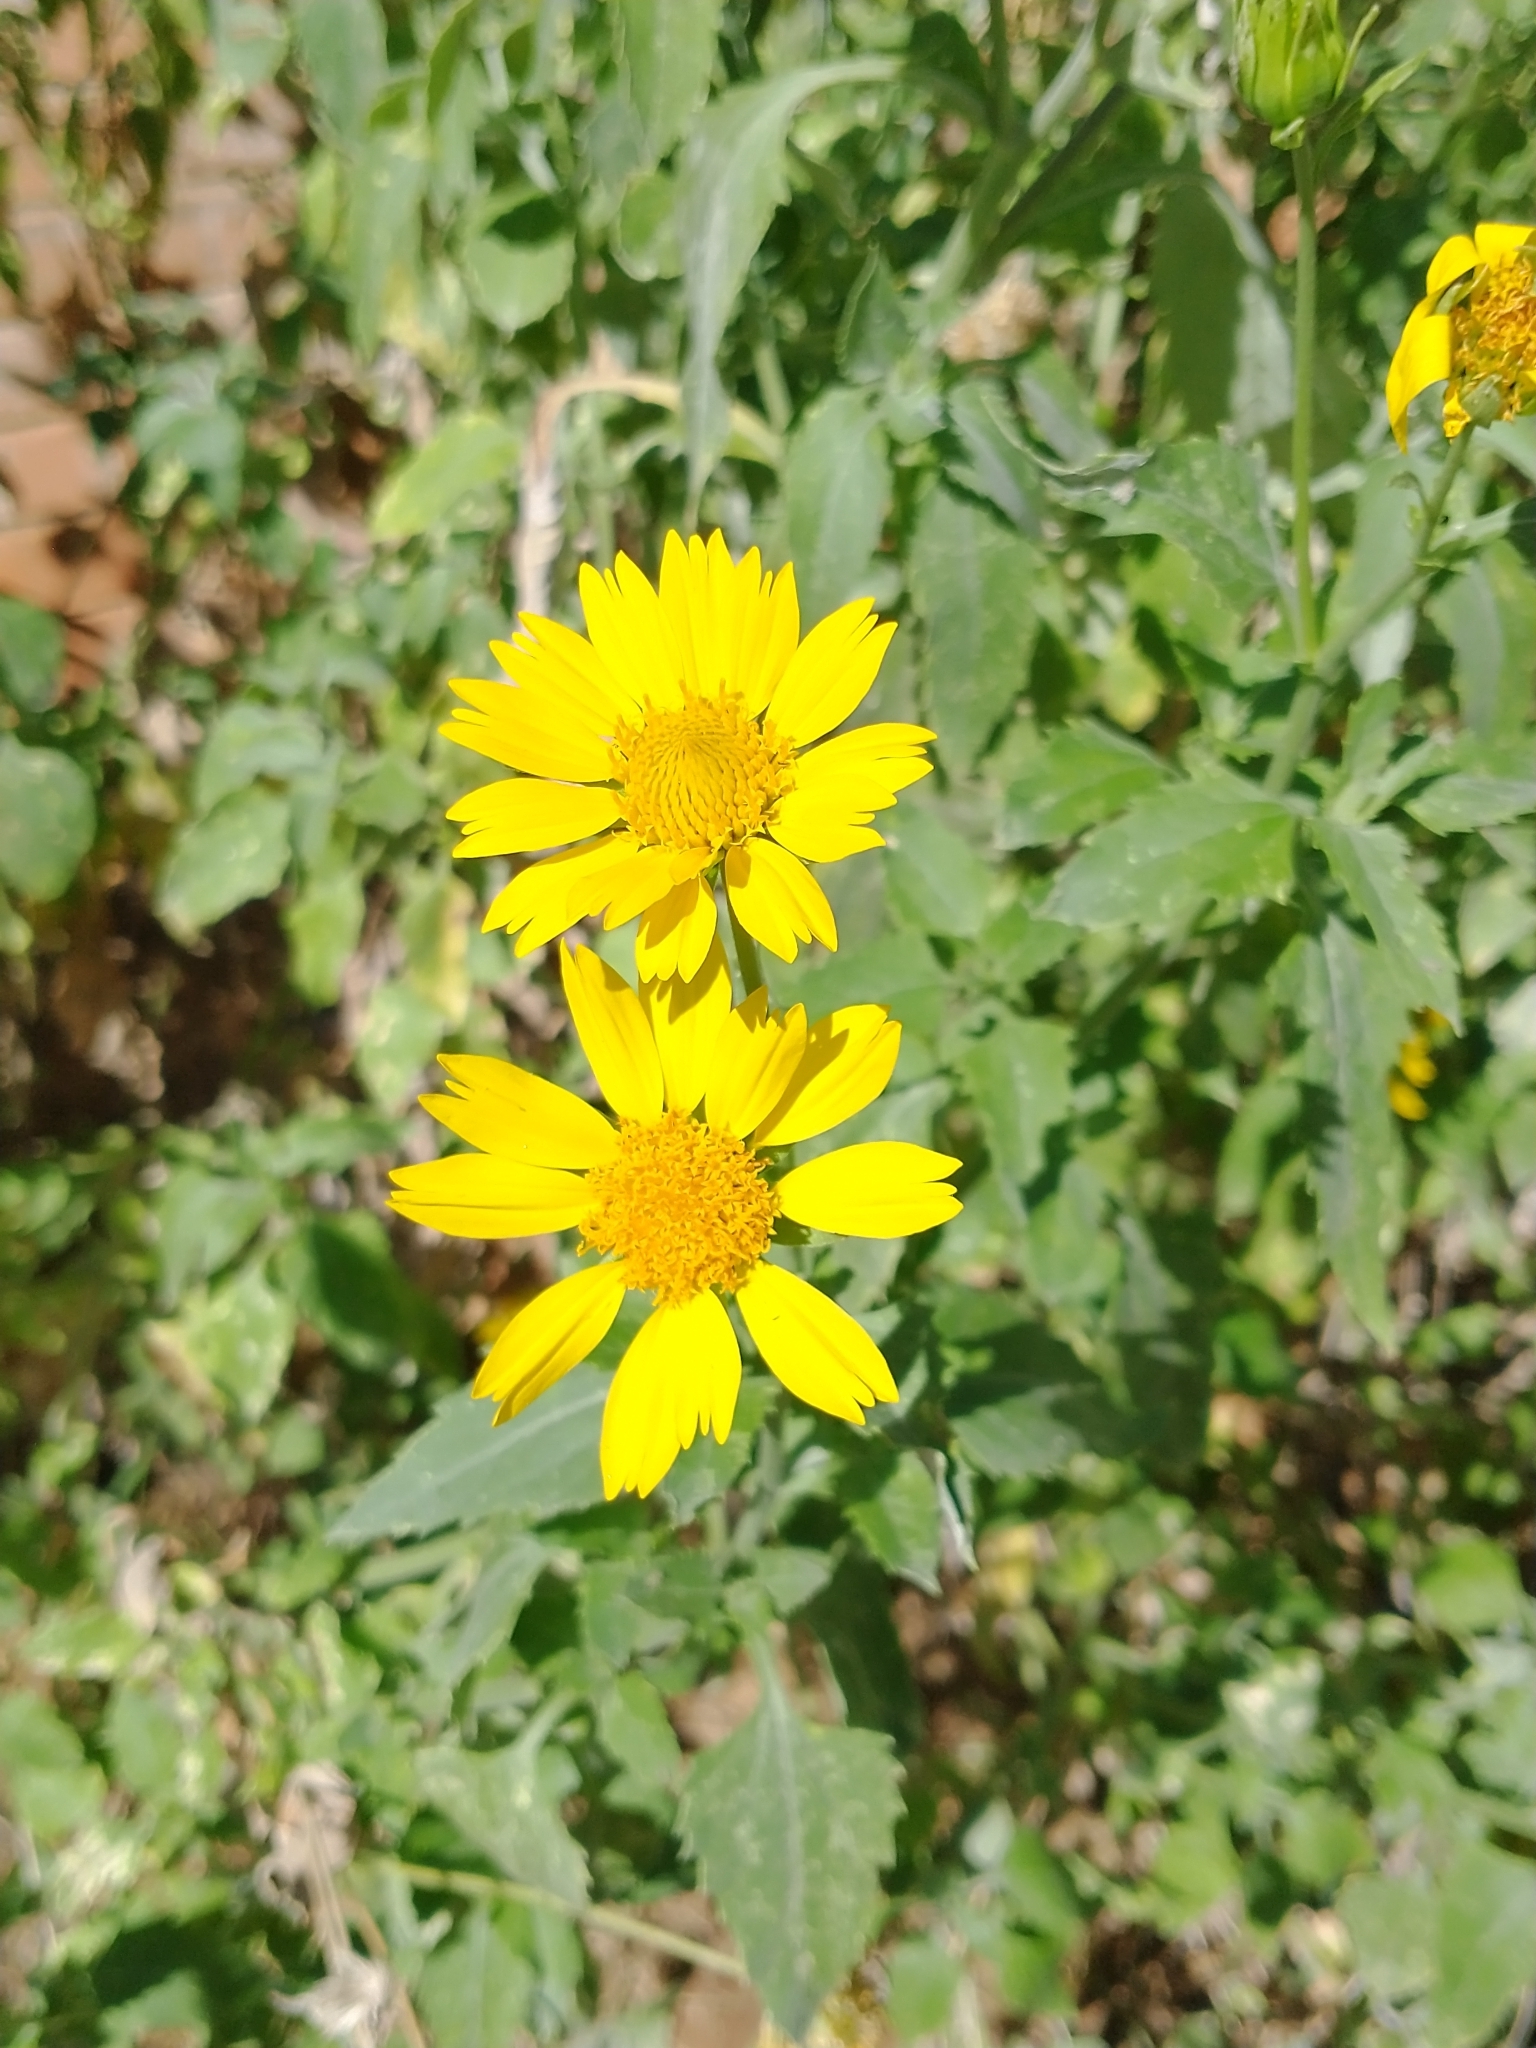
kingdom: Plantae
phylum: Tracheophyta
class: Magnoliopsida
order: Asterales
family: Asteraceae
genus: Verbesina
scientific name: Verbesina encelioides
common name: Golden crownbeard
